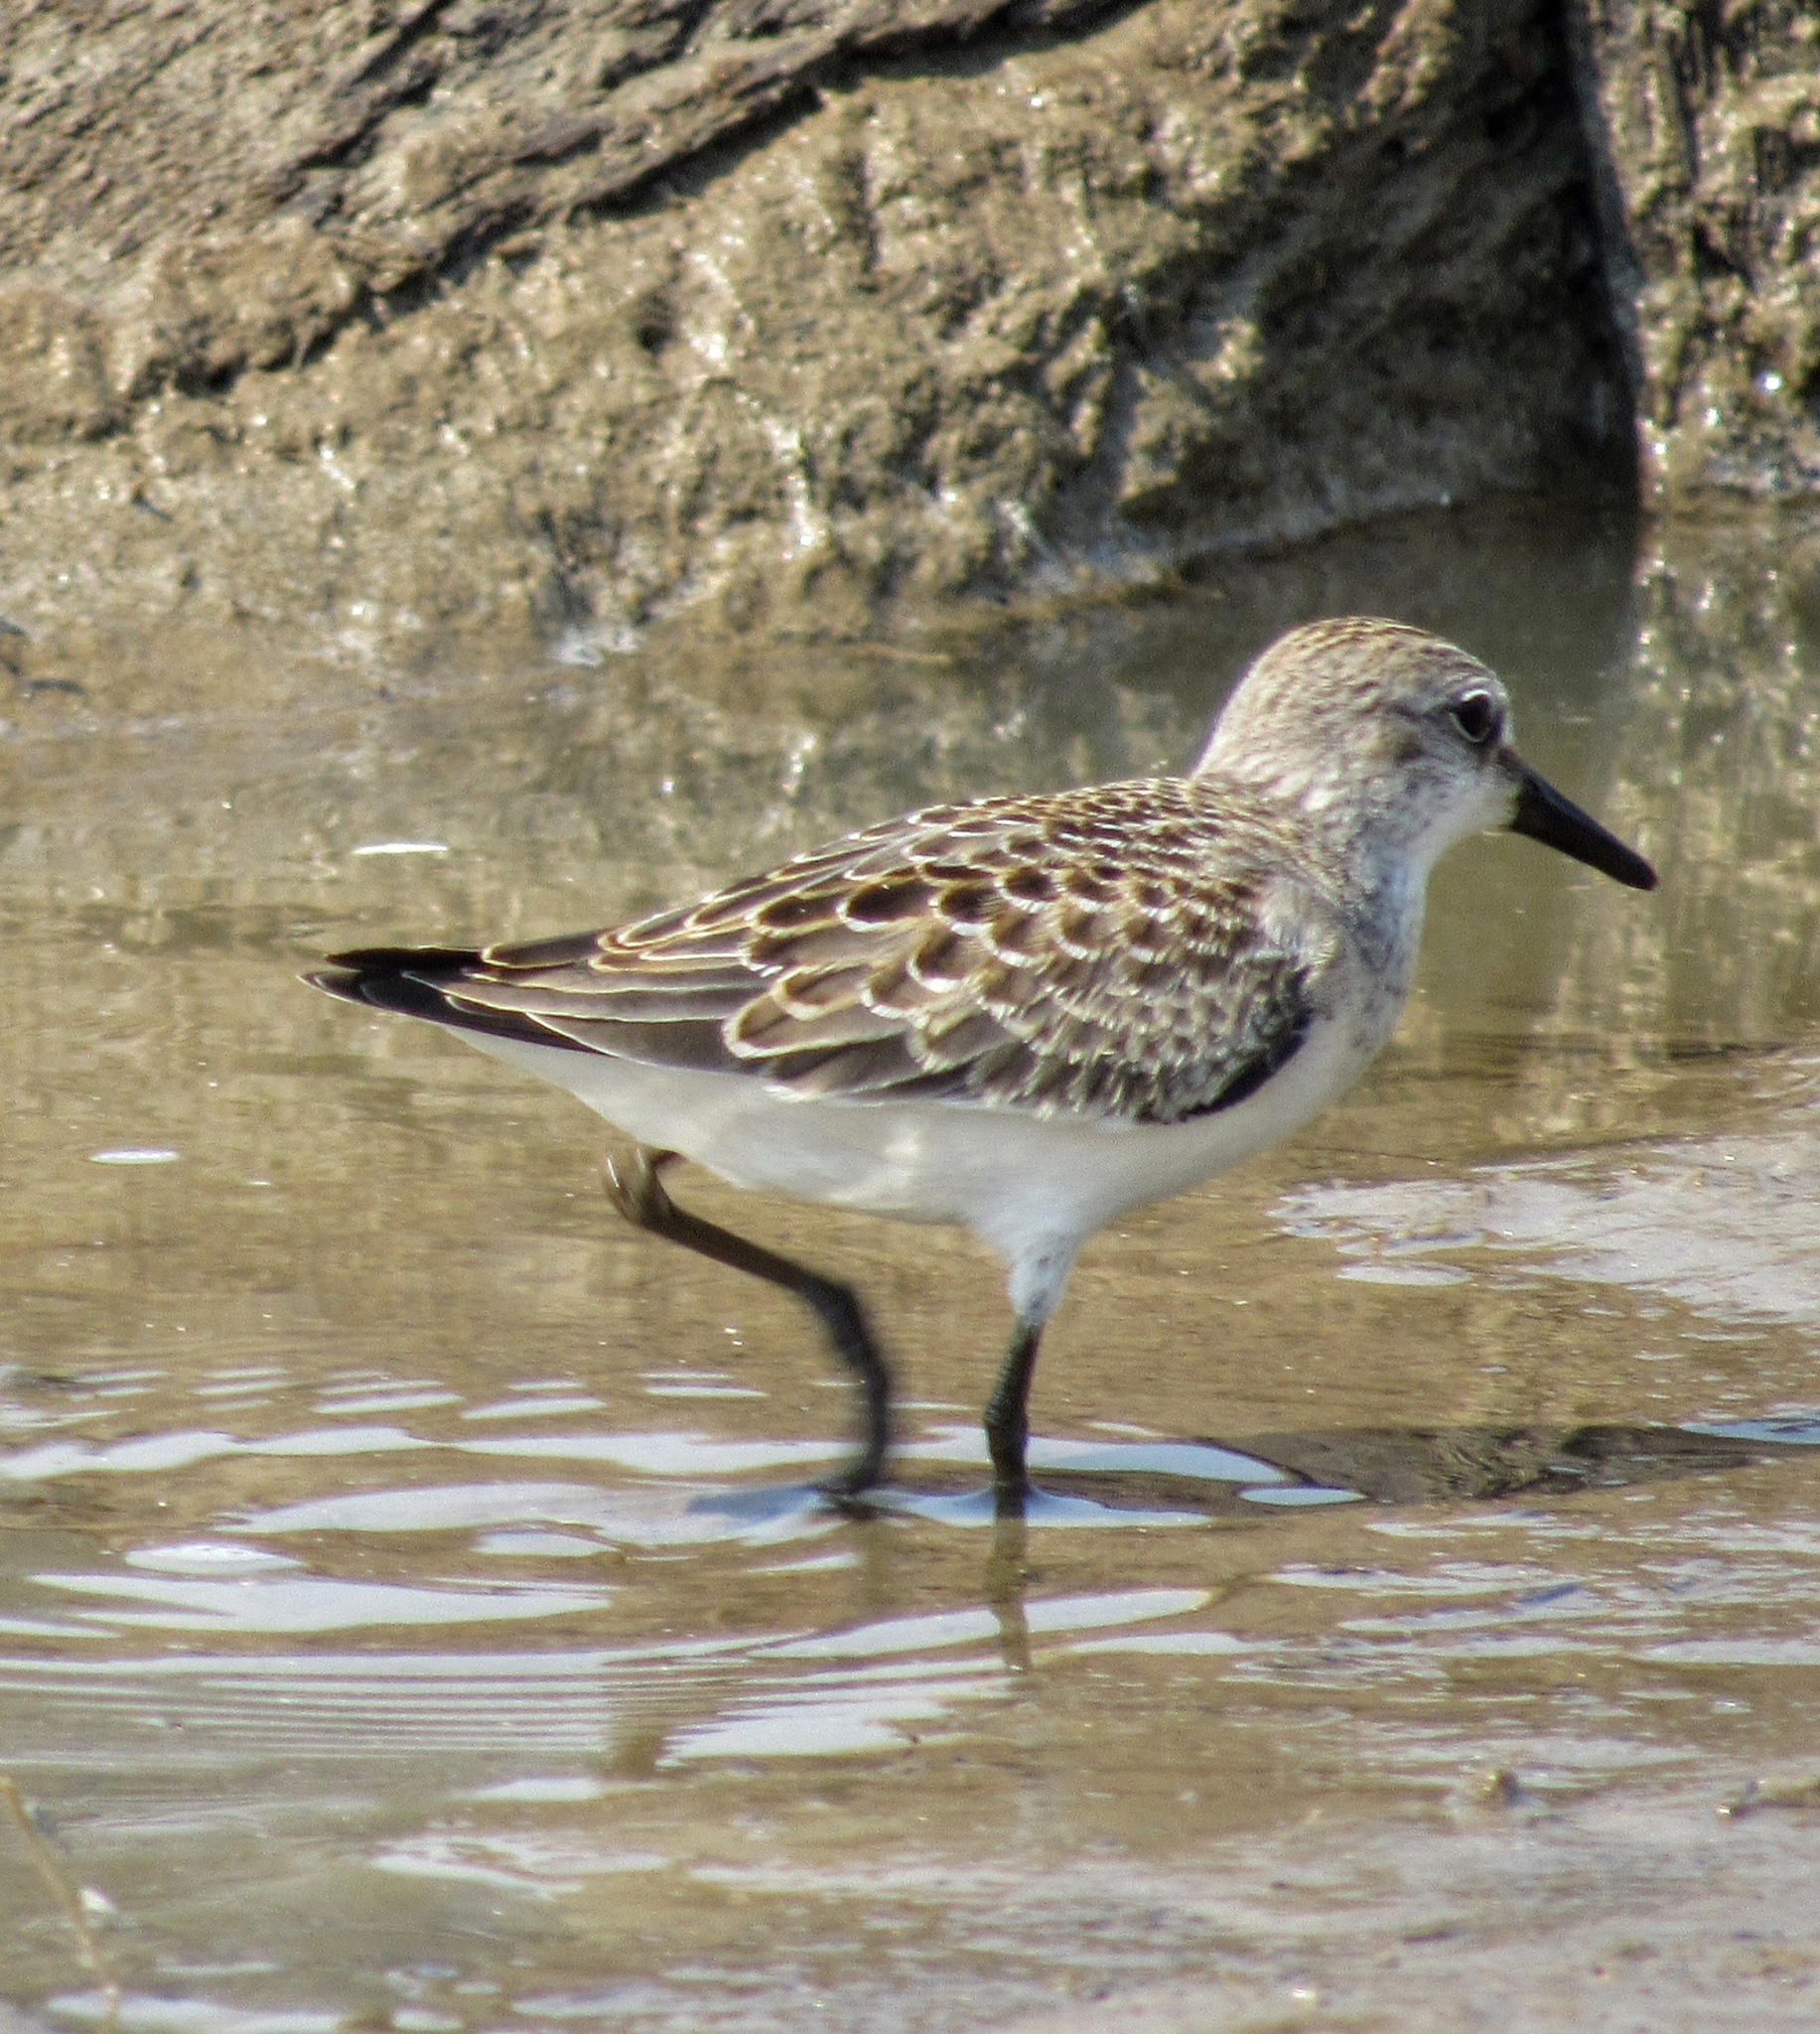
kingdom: Animalia
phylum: Chordata
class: Aves
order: Charadriiformes
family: Scolopacidae
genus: Calidris
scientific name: Calidris pusilla
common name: Semipalmated sandpiper
